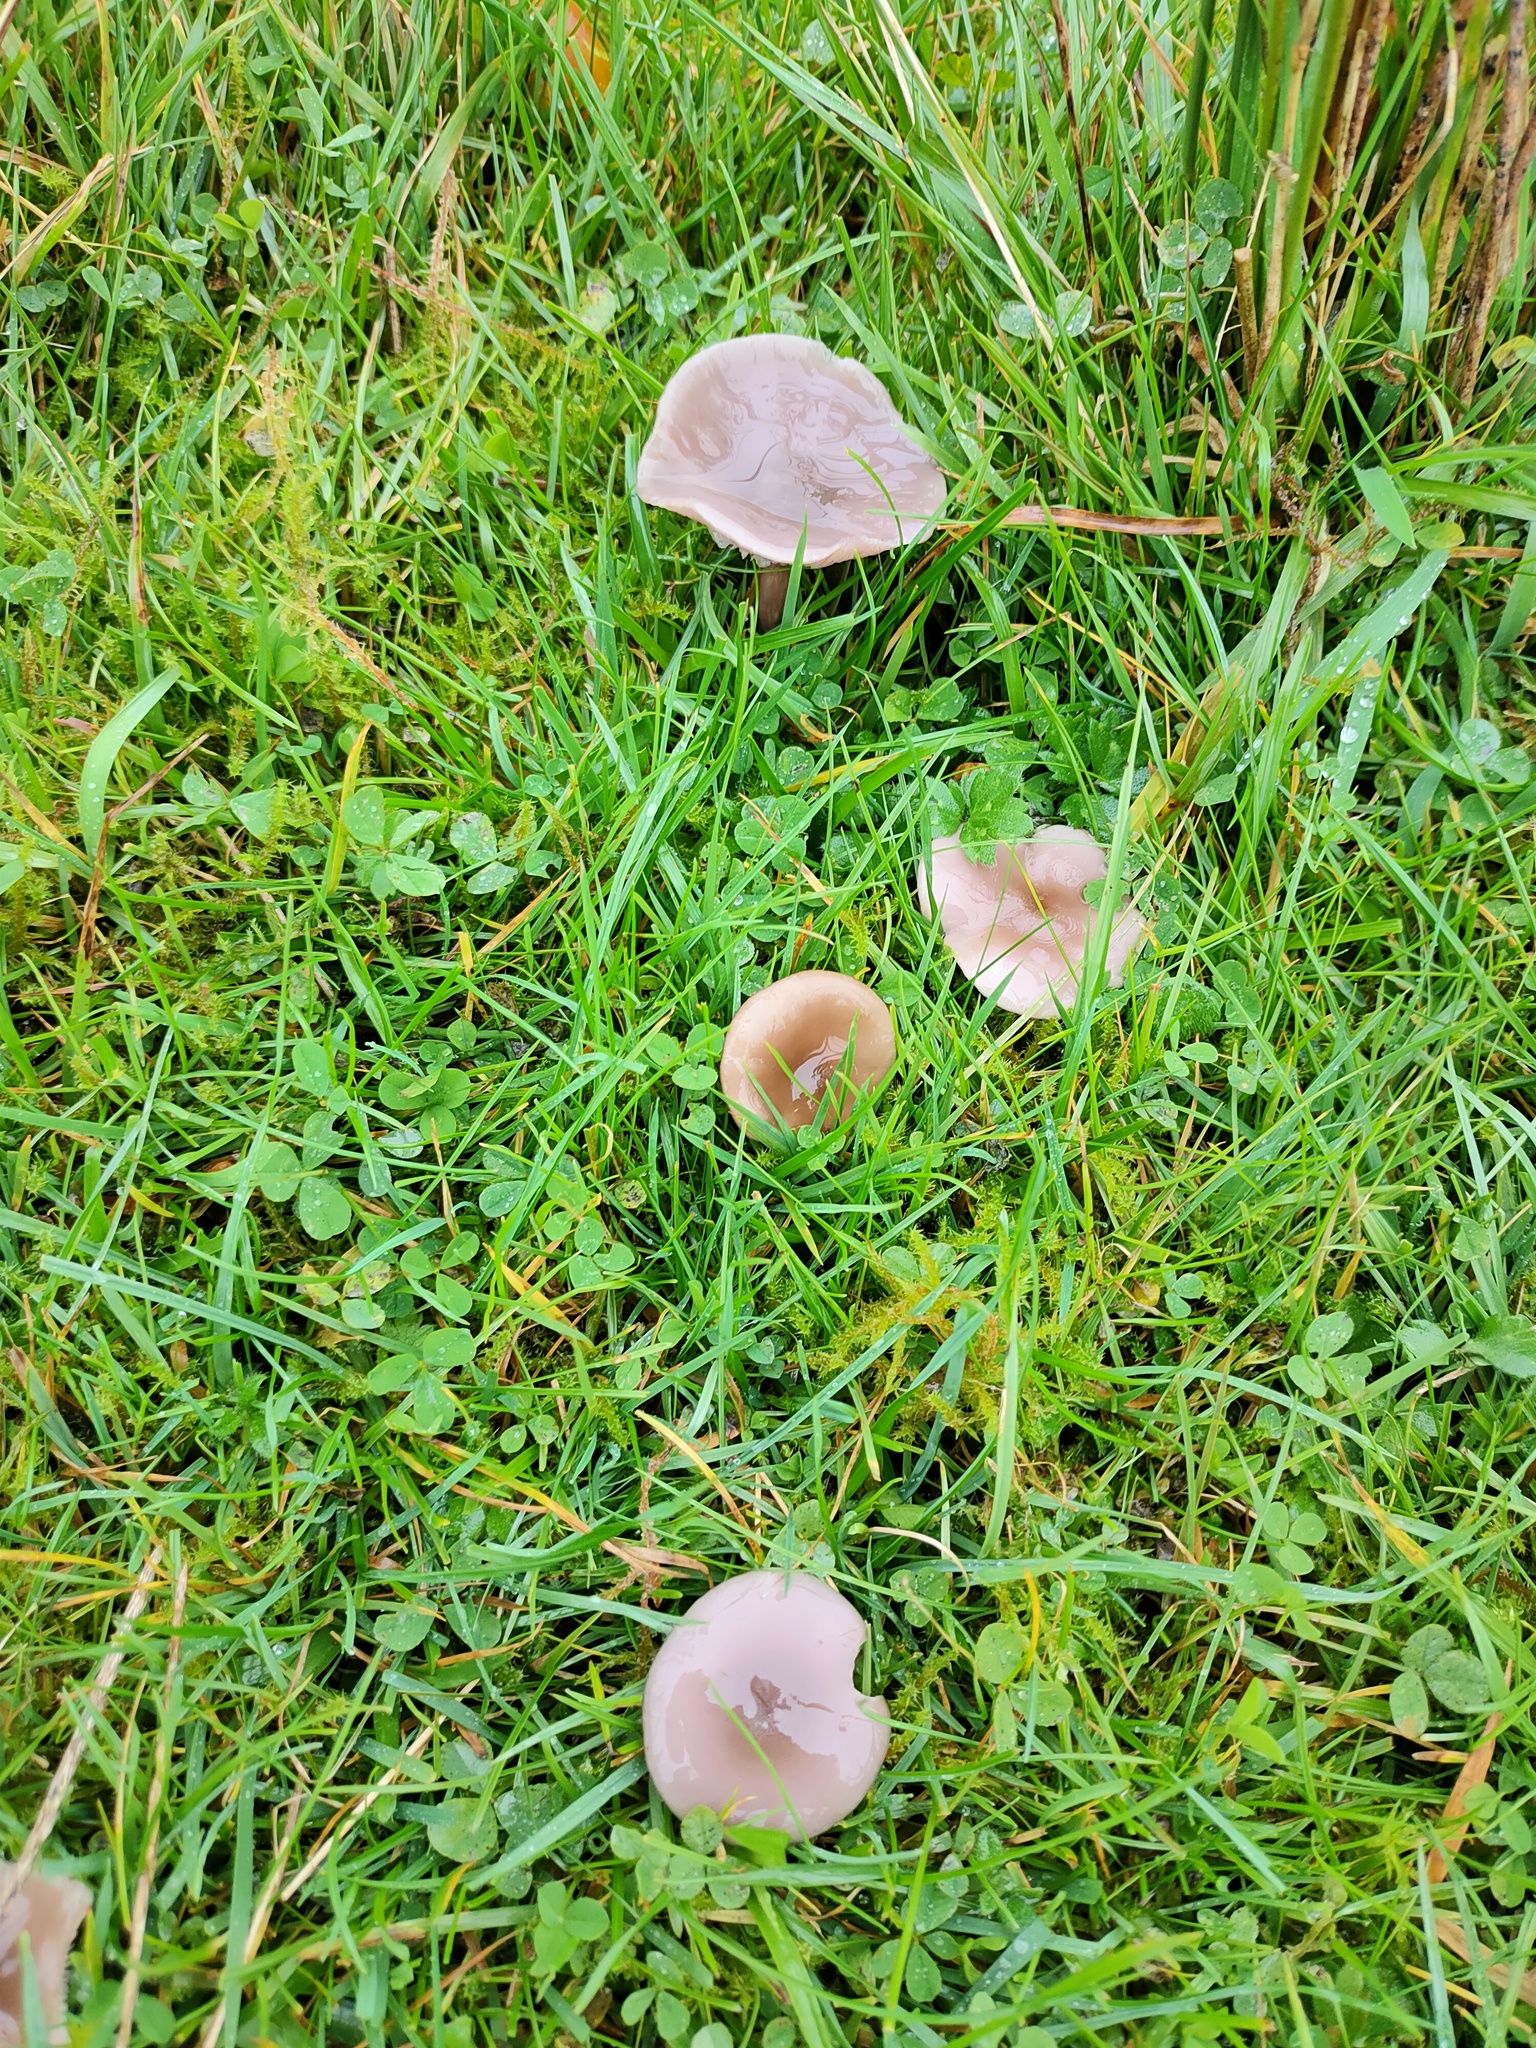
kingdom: Fungi
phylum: Basidiomycota
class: Agaricomycetes
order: Agaricales
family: Tricholomataceae
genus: Collybia
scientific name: Collybia
